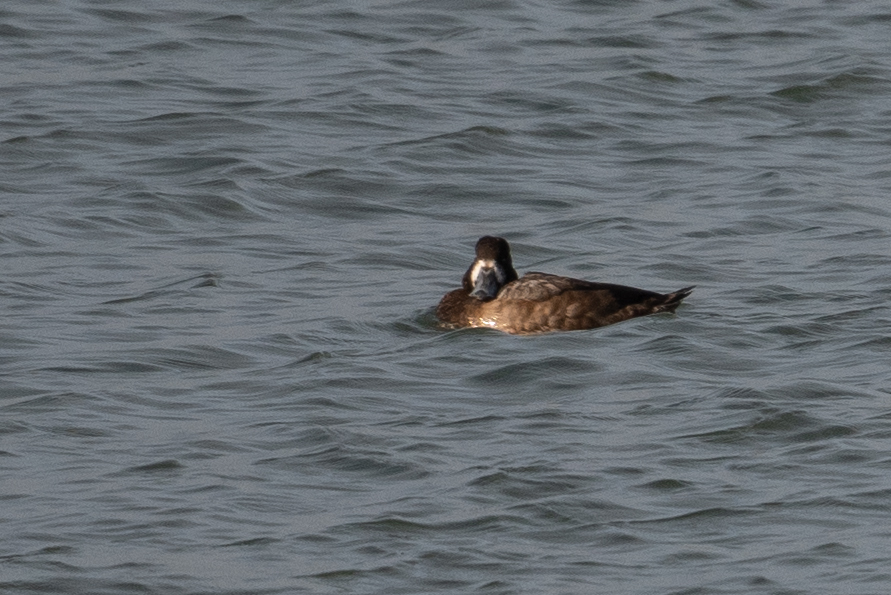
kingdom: Animalia
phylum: Chordata
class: Aves
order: Anseriformes
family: Anatidae
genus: Aythya
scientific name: Aythya marila
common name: Greater scaup
